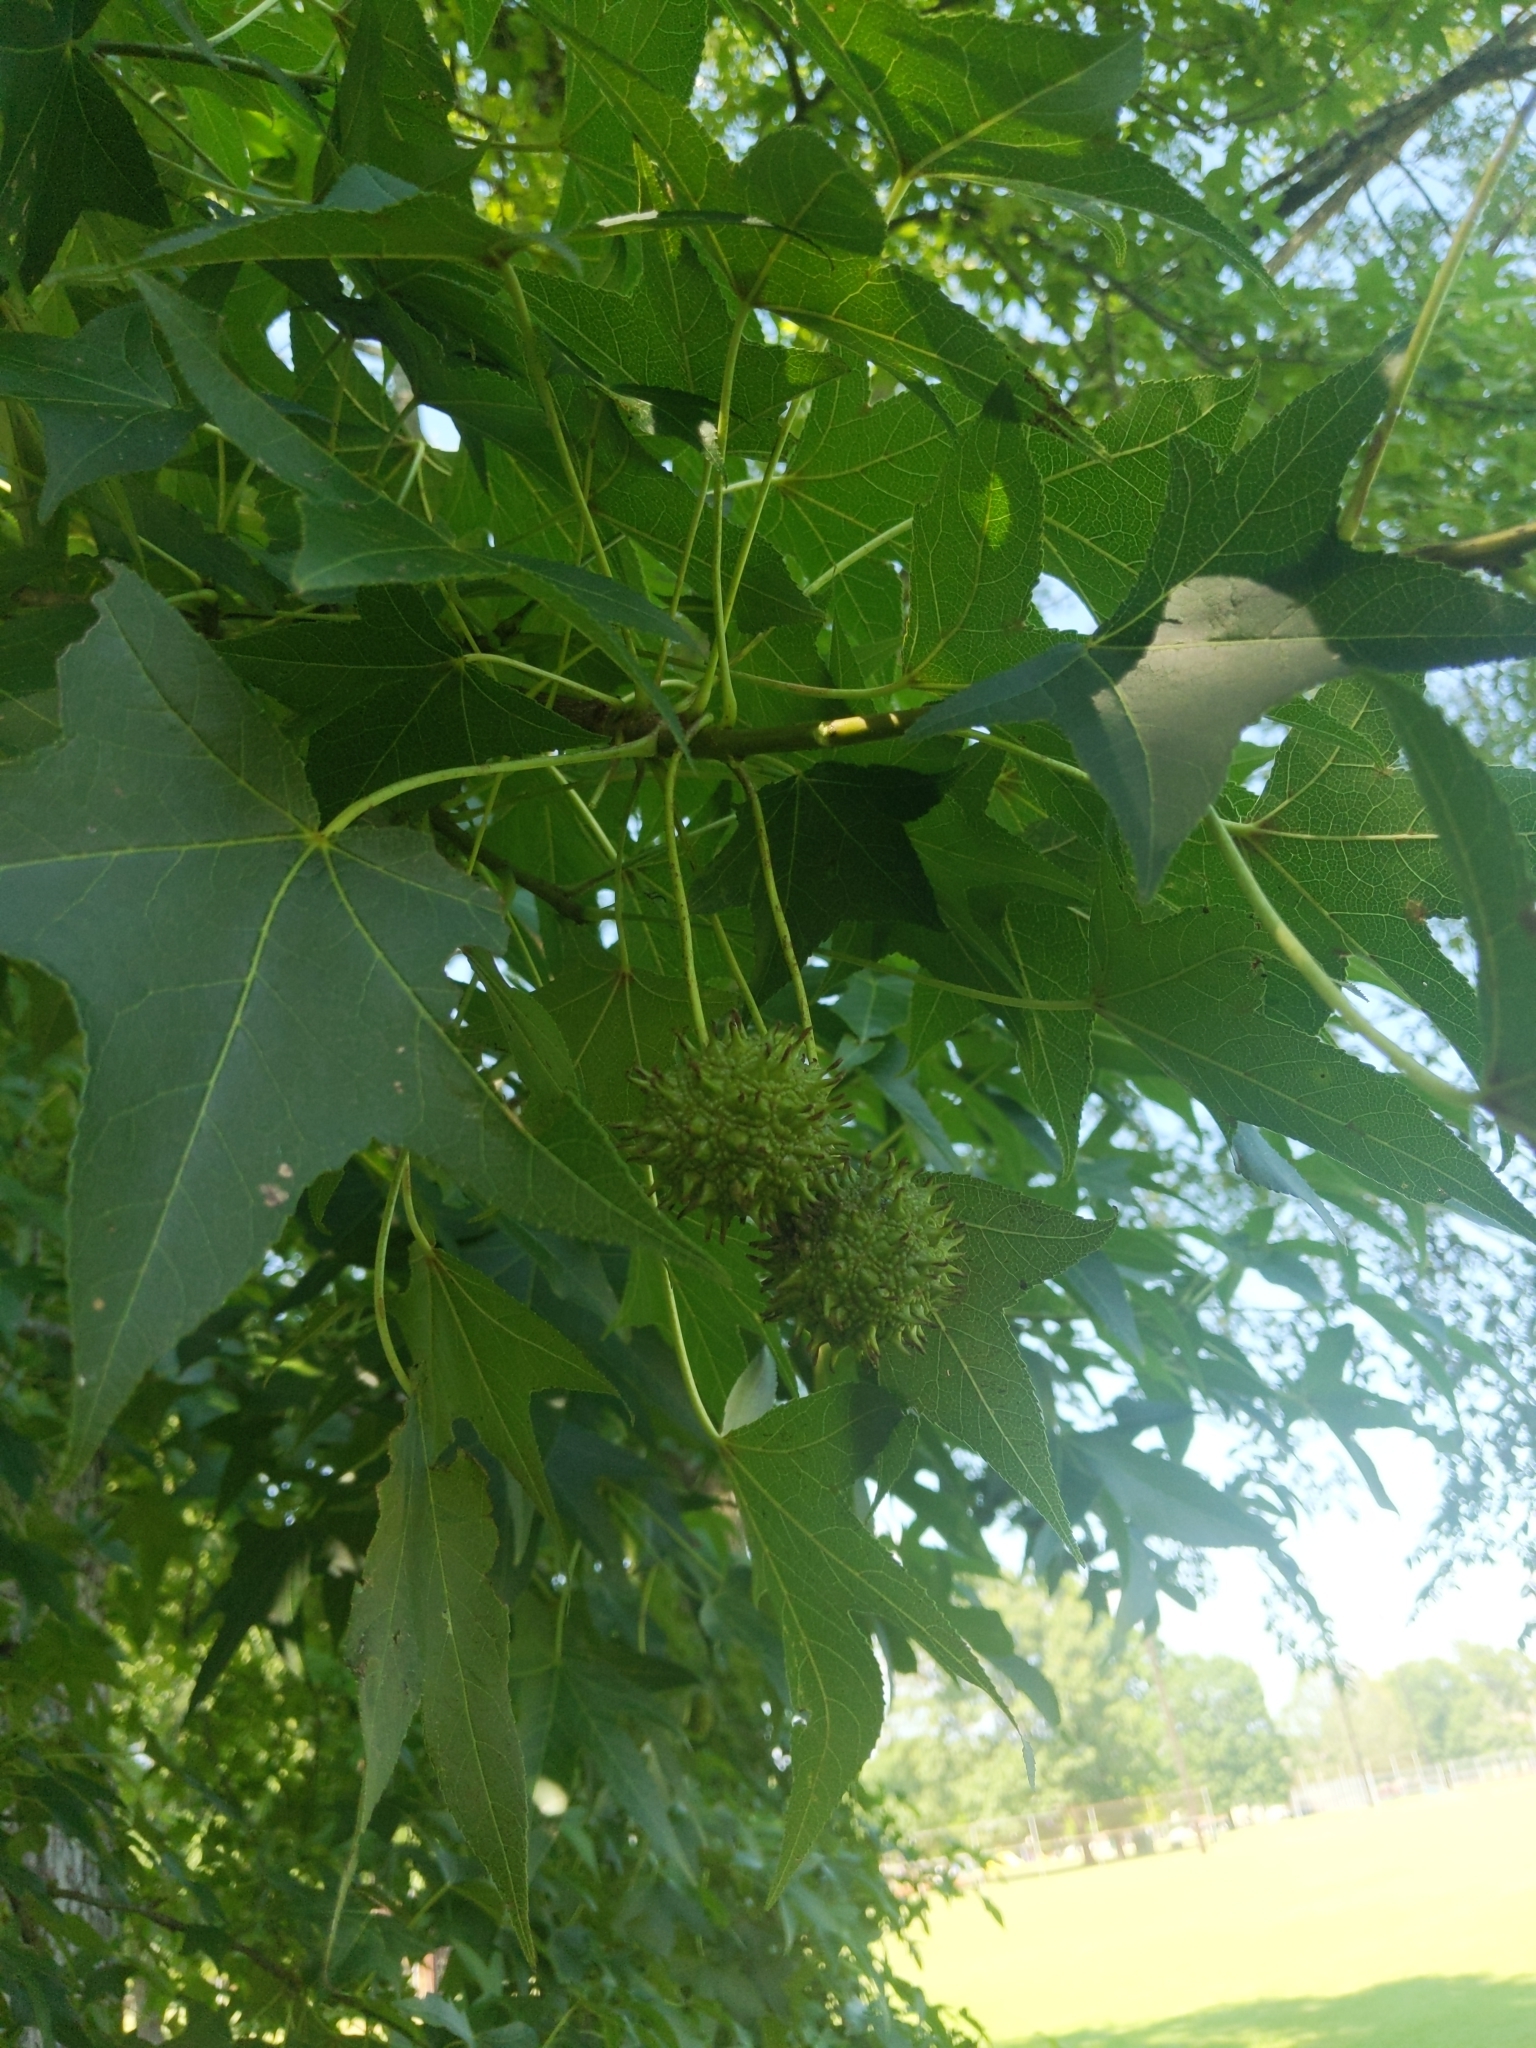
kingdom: Plantae
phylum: Tracheophyta
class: Magnoliopsida
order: Saxifragales
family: Altingiaceae
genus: Liquidambar
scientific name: Liquidambar styraciflua
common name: Sweet gum
